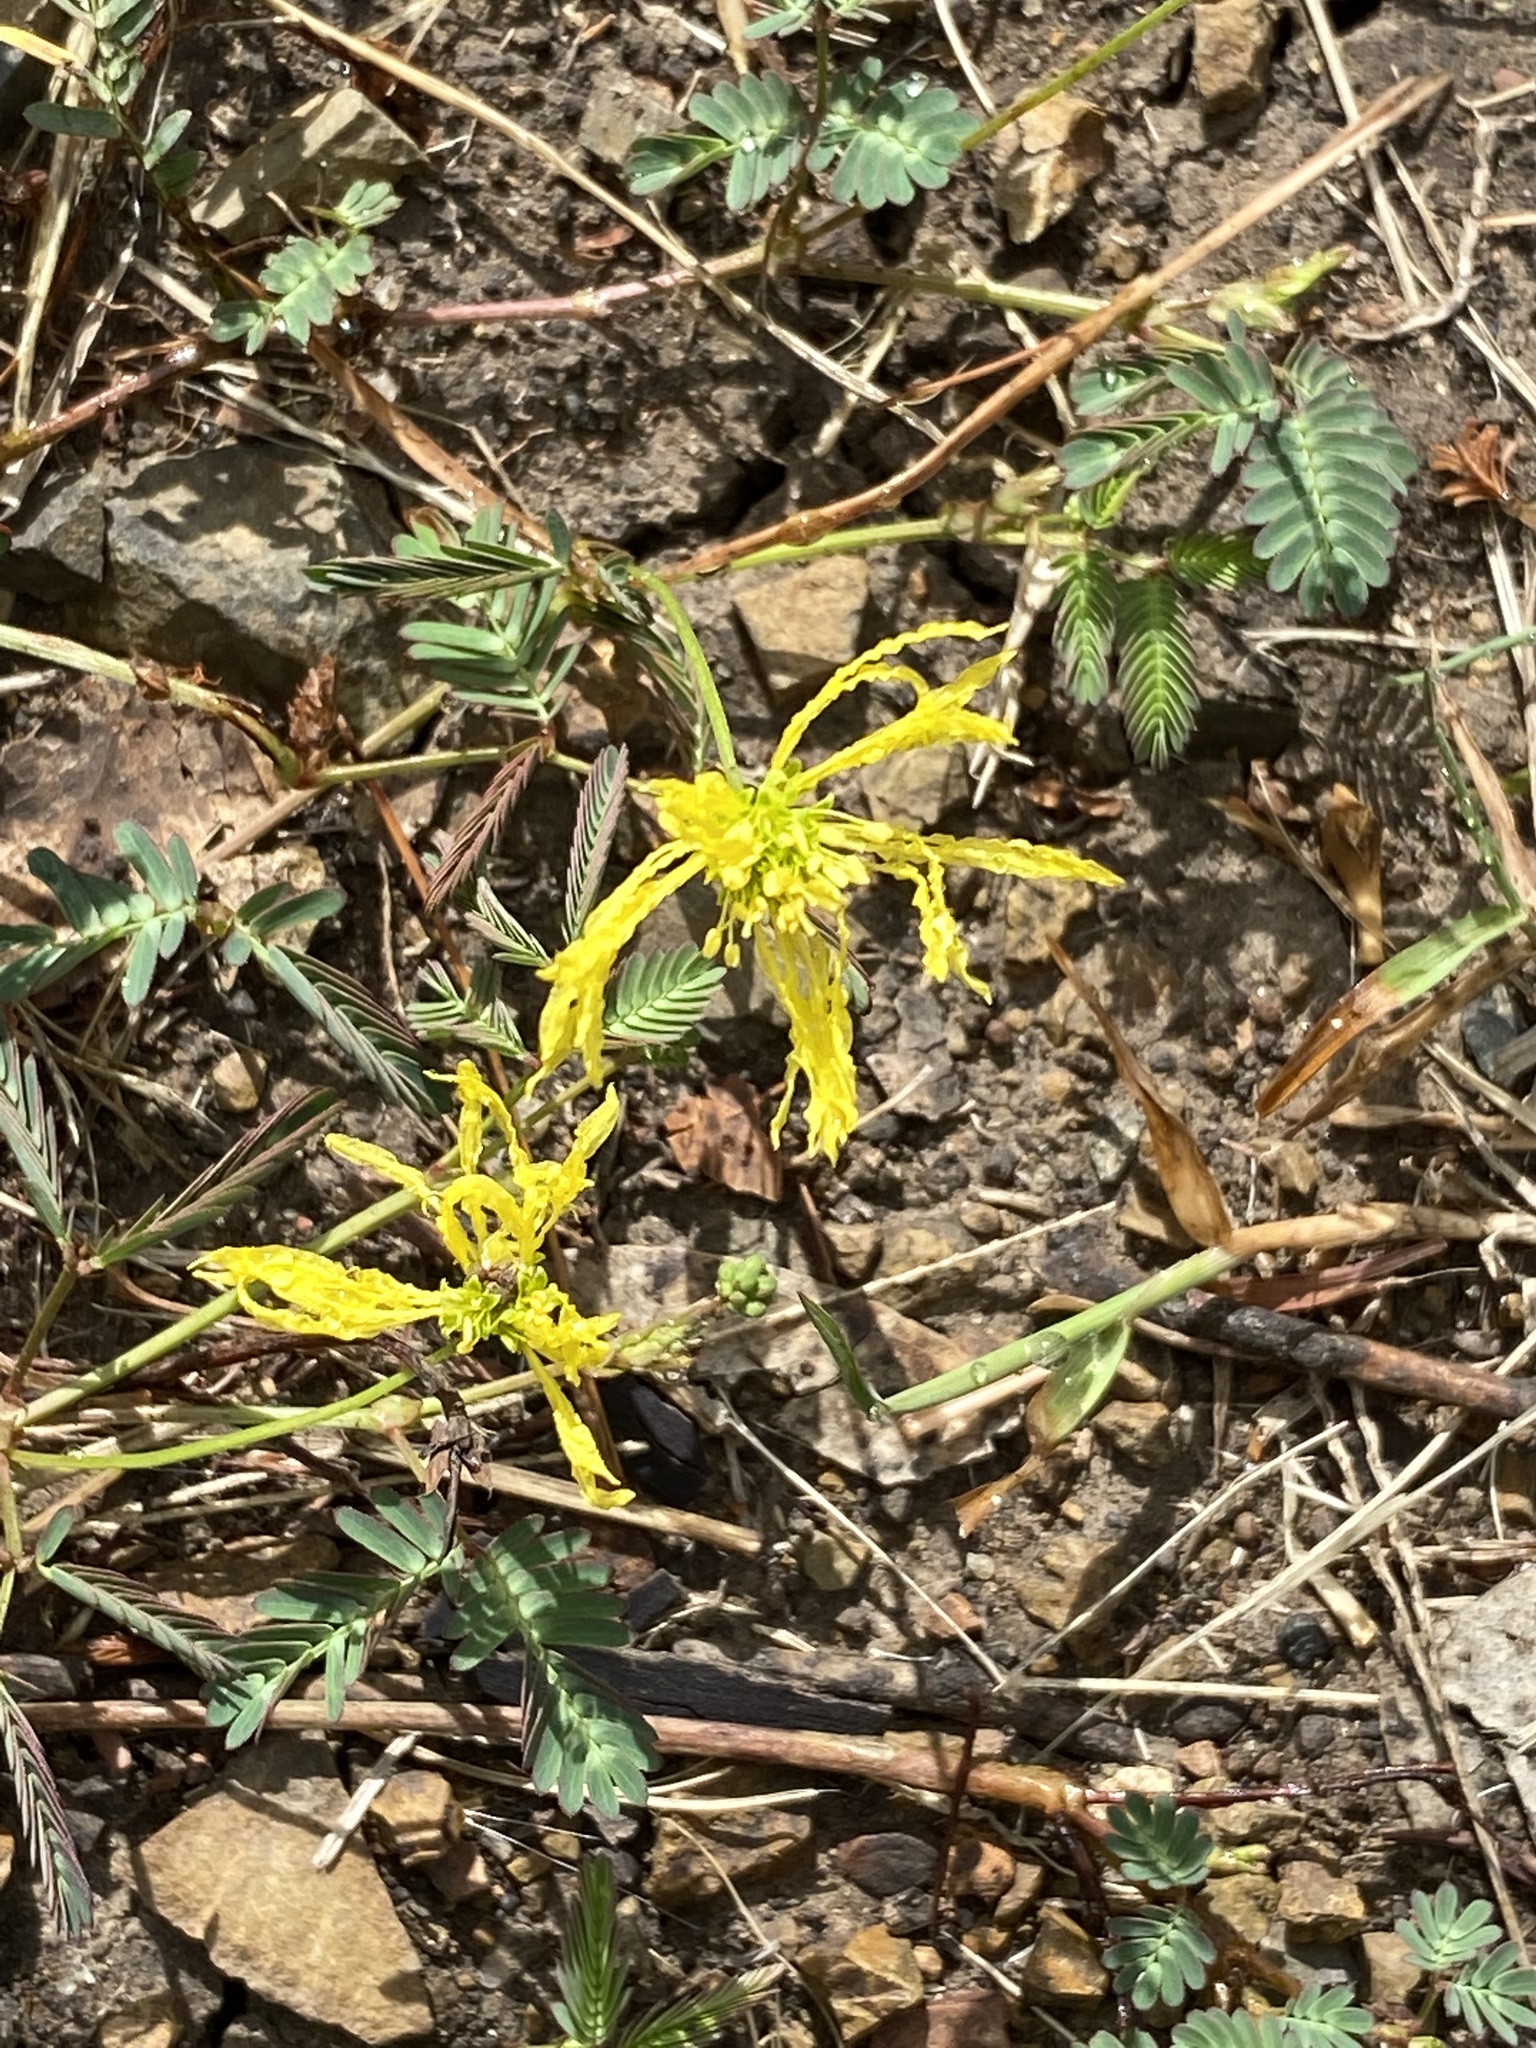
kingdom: Plantae
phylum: Tracheophyta
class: Magnoliopsida
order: Fabales
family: Fabaceae
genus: Neptunia
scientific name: Neptunia gracilis
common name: Sensitive-plant
